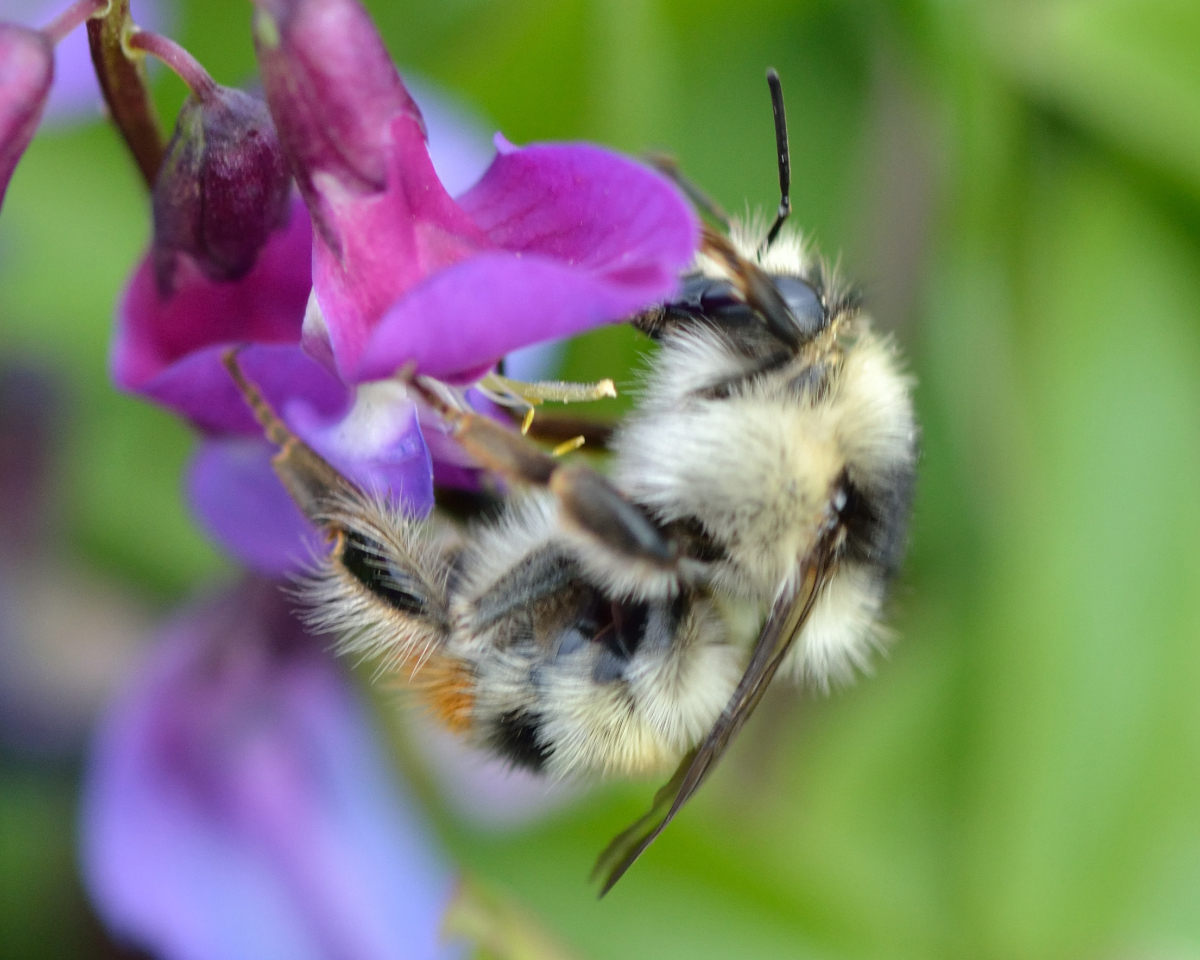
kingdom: Animalia
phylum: Arthropoda
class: Insecta
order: Hymenoptera
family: Apidae
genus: Bombus
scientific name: Bombus sylvarum
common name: Shrill carder bee
